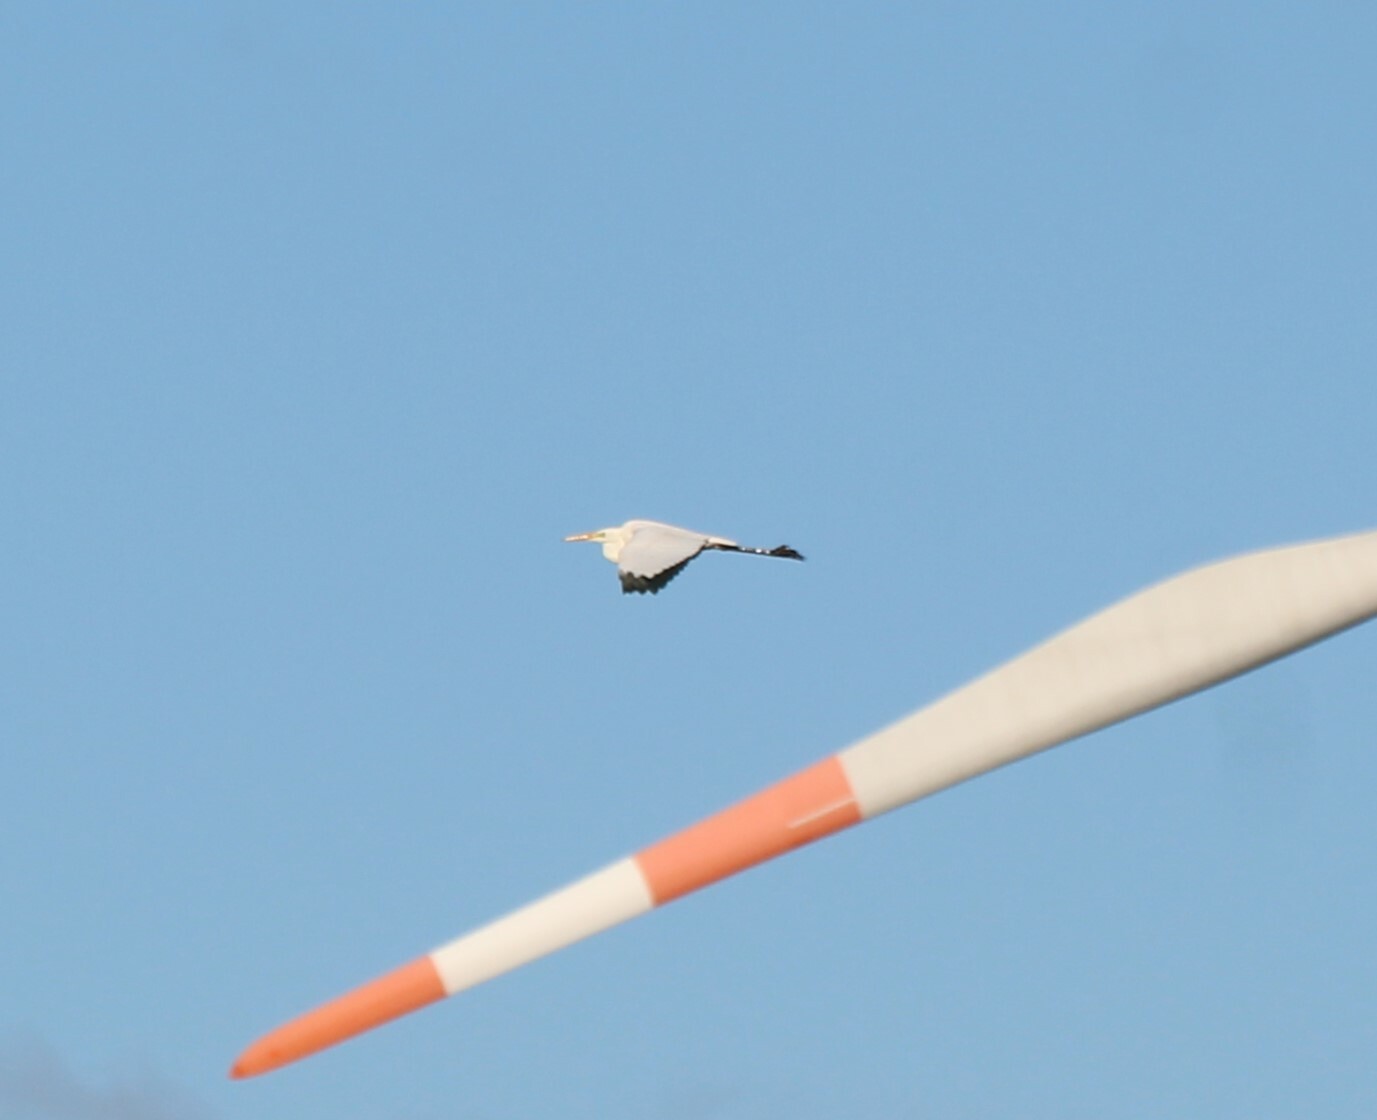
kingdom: Animalia
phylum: Chordata
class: Aves
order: Pelecaniformes
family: Ardeidae
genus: Ardea
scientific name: Ardea alba
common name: Great egret
